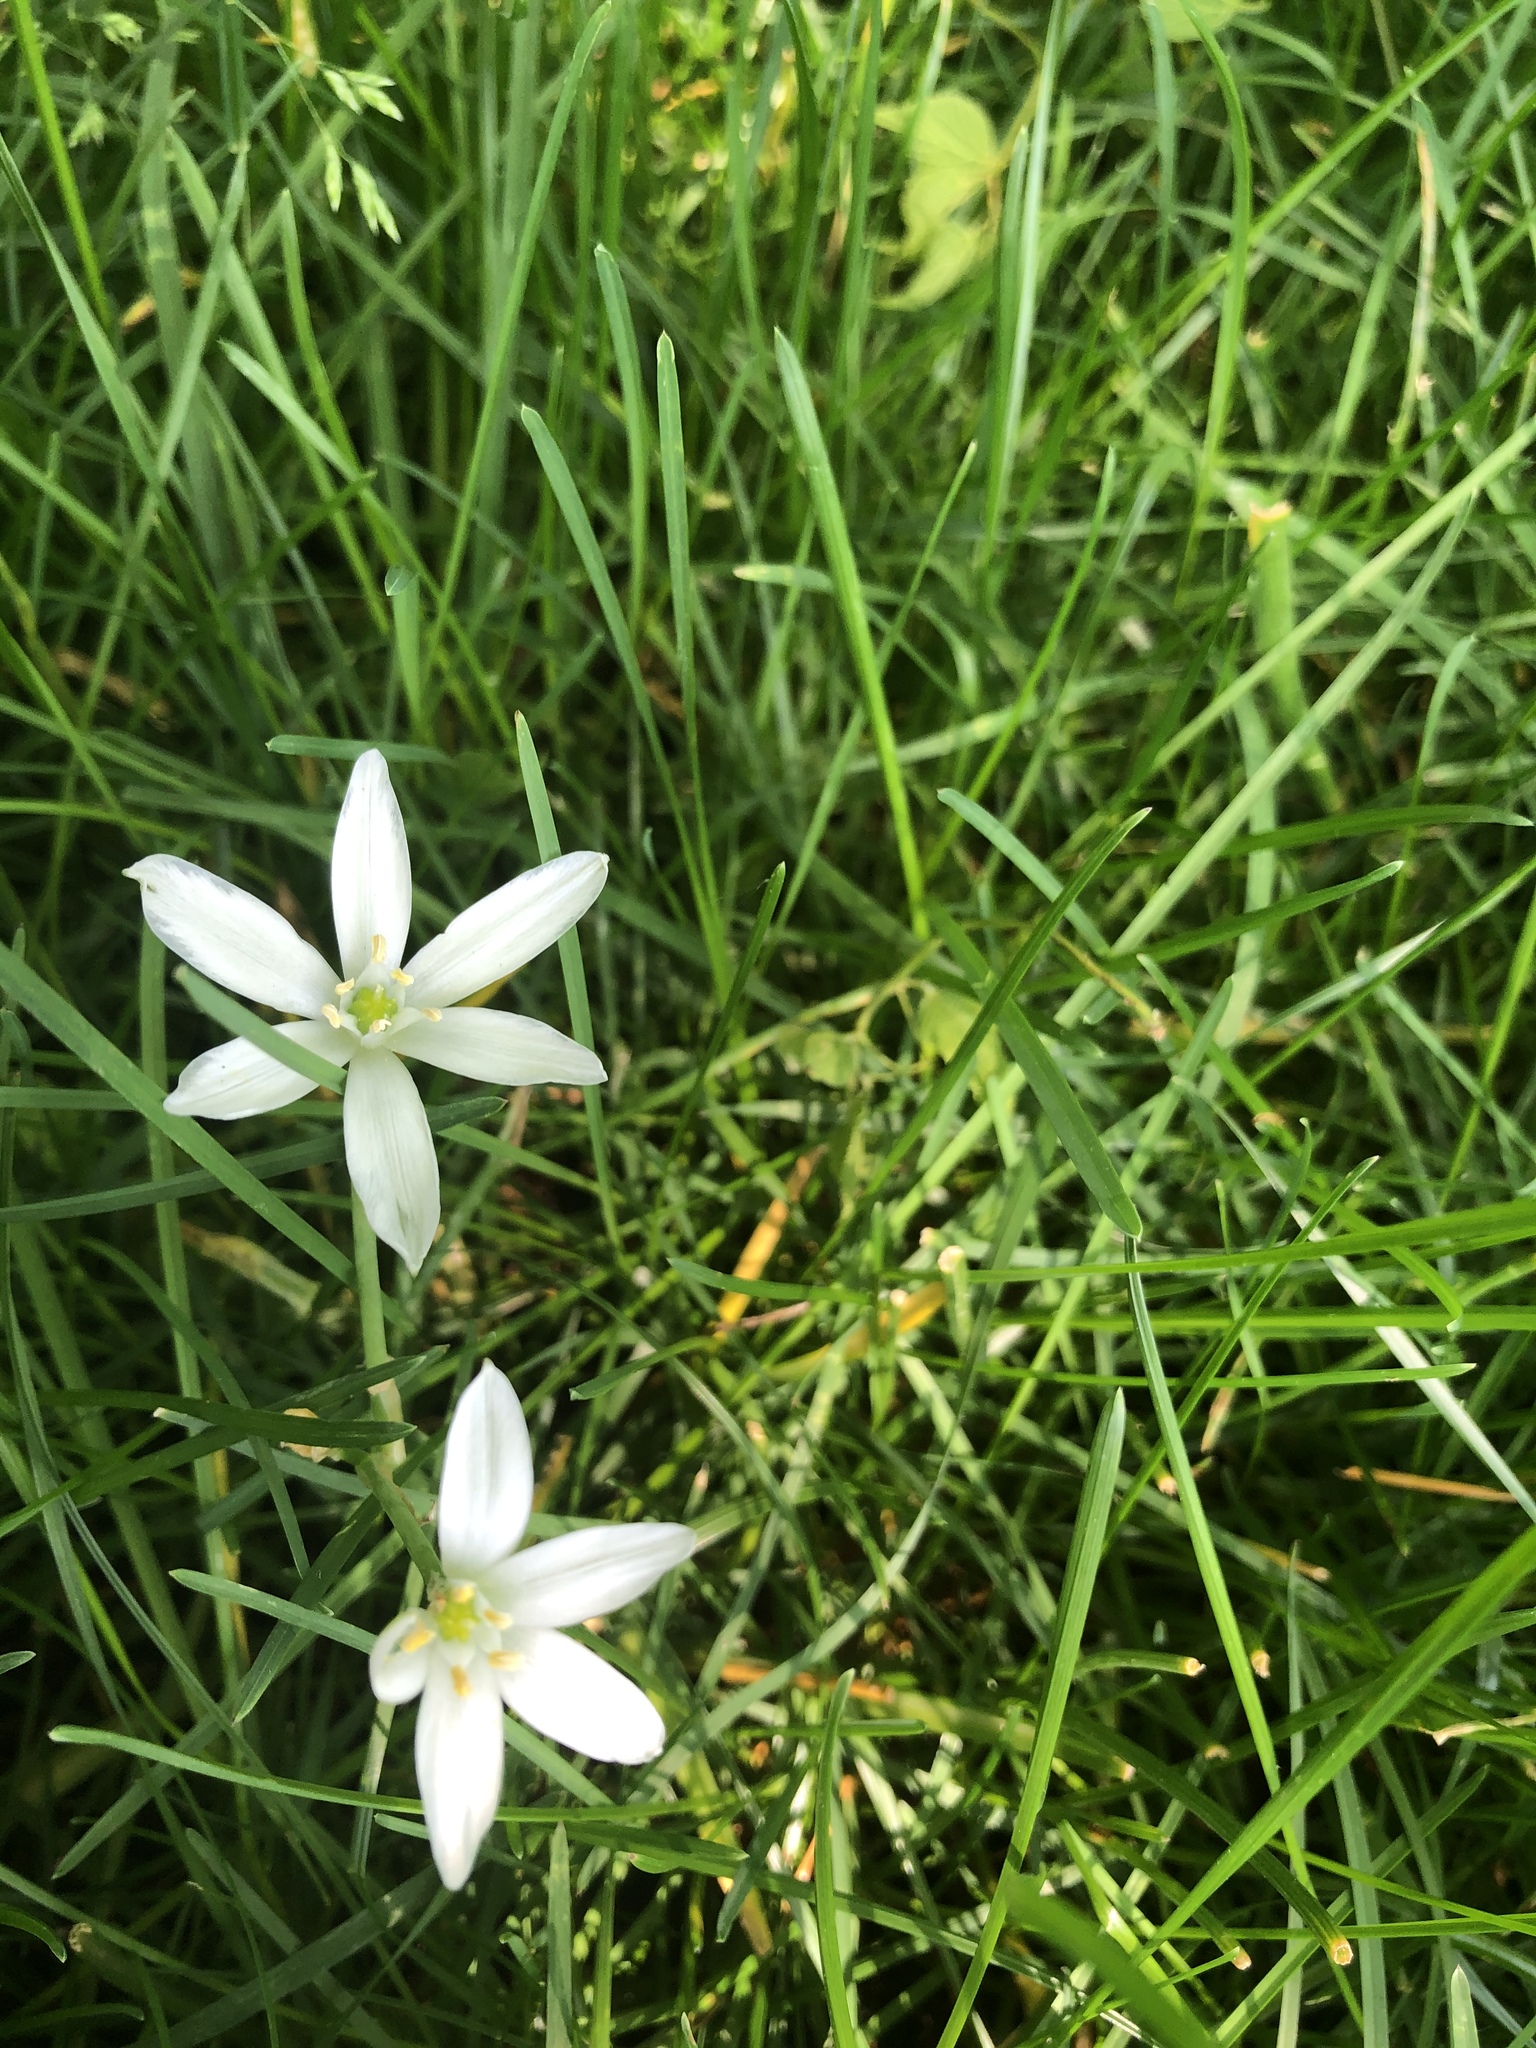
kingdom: Plantae
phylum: Tracheophyta
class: Liliopsida
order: Asparagales
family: Asparagaceae
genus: Ornithogalum
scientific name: Ornithogalum umbellatum
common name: Garden star-of-bethlehem
